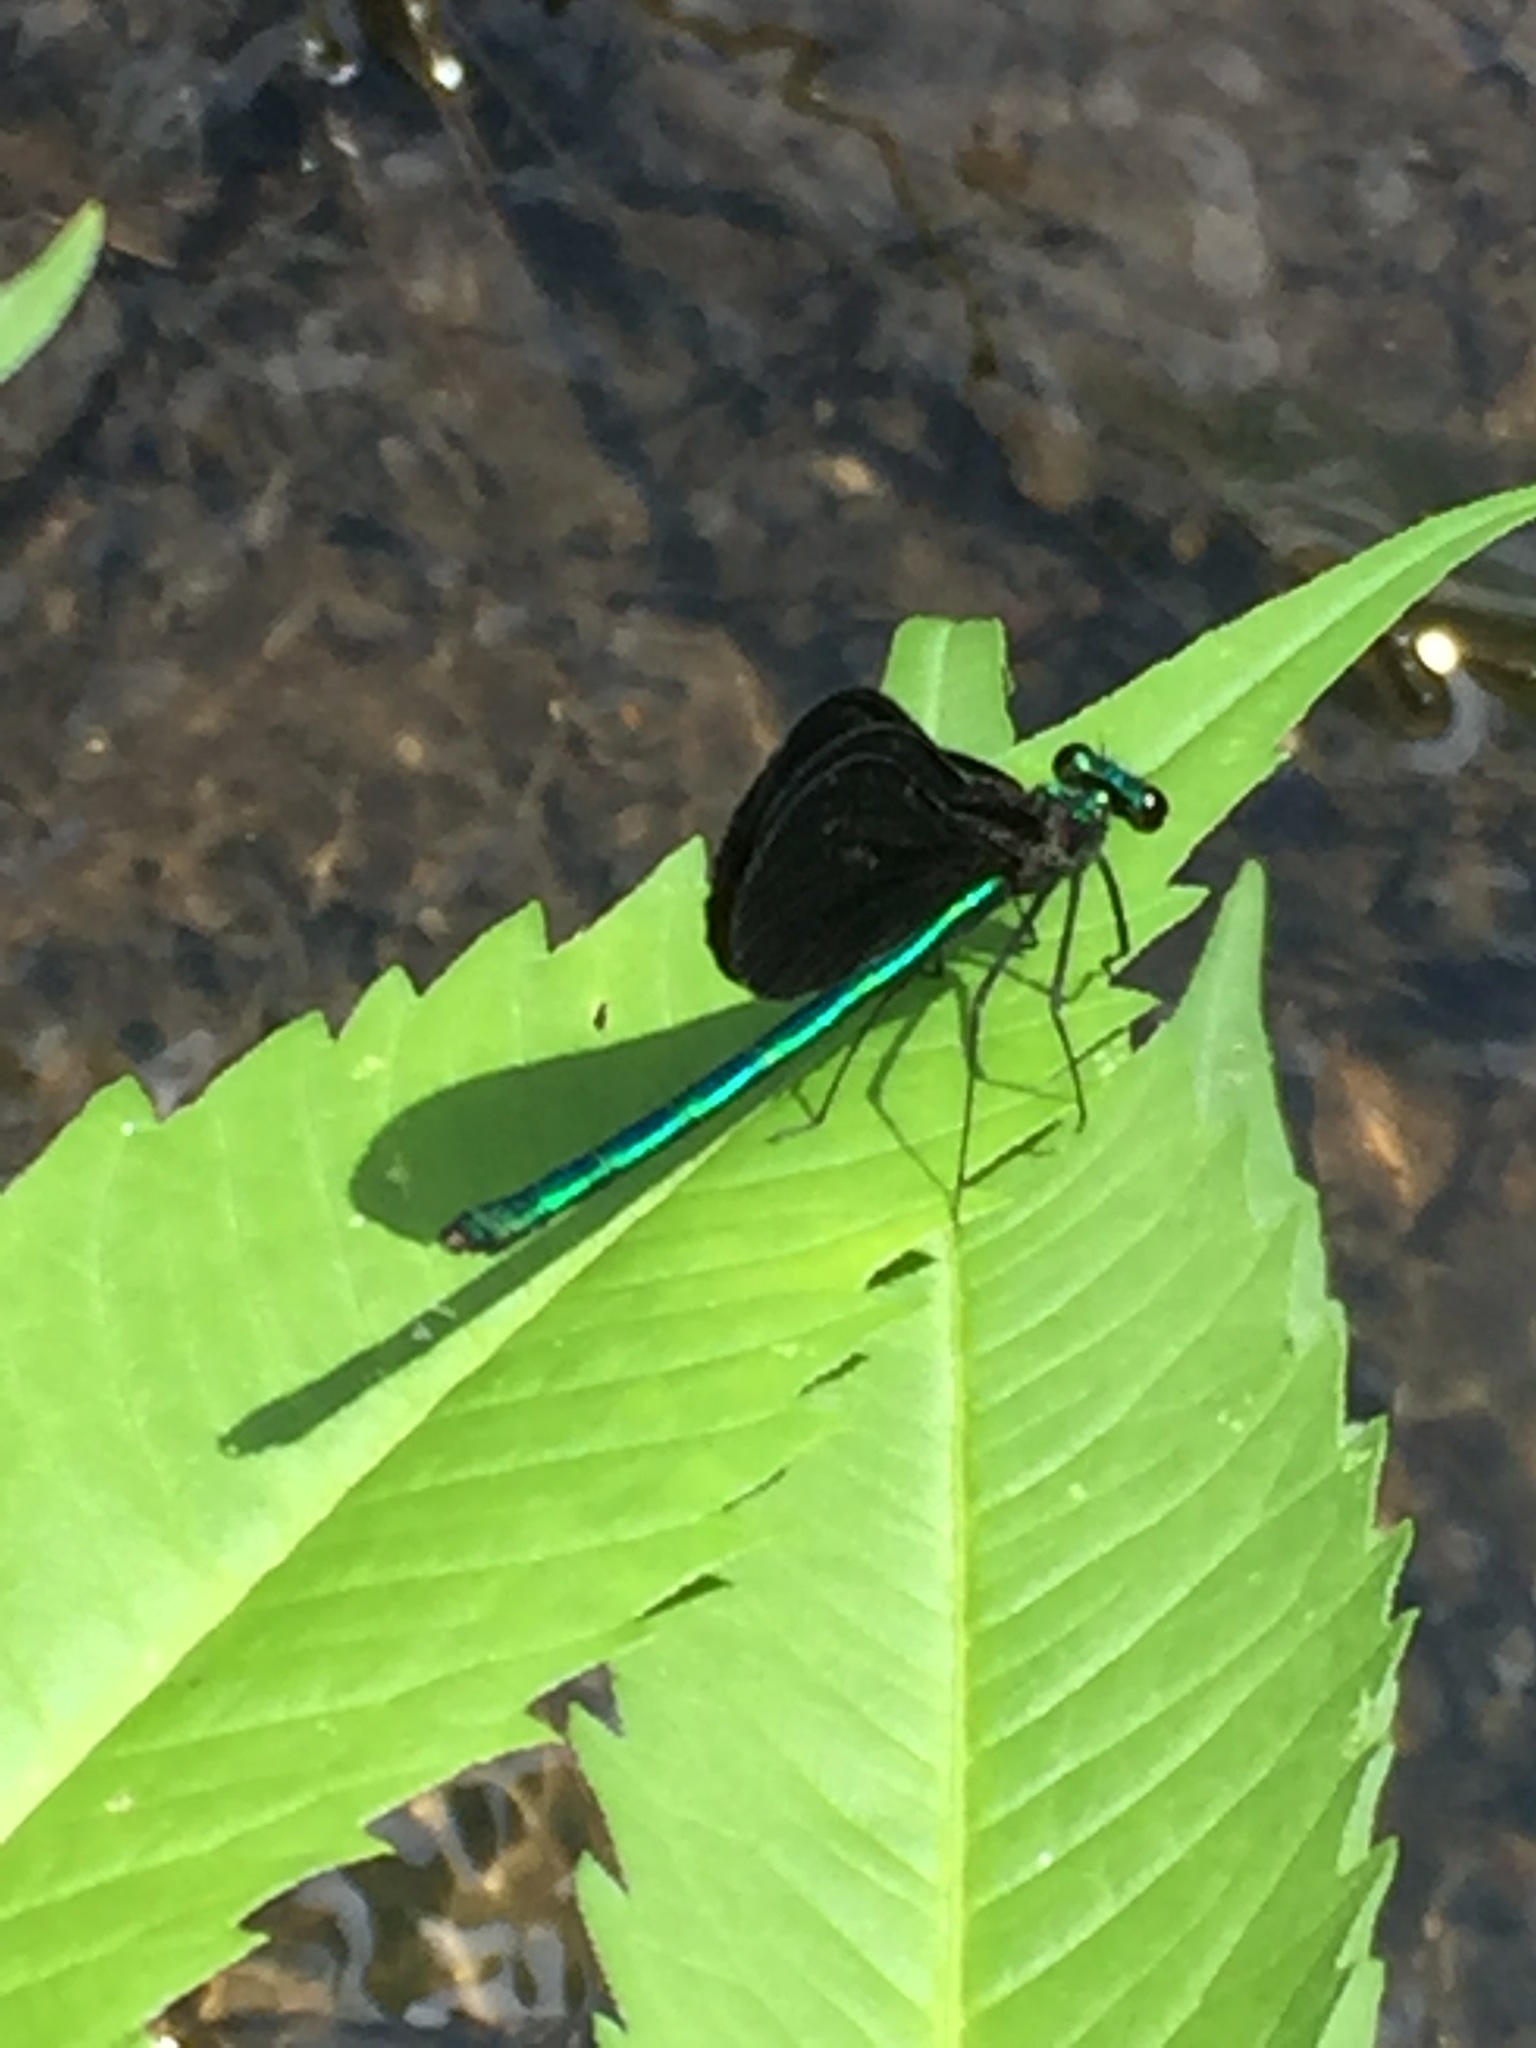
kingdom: Animalia
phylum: Arthropoda
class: Insecta
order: Odonata
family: Calopterygidae
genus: Calopteryx
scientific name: Calopteryx maculata
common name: Ebony jewelwing
